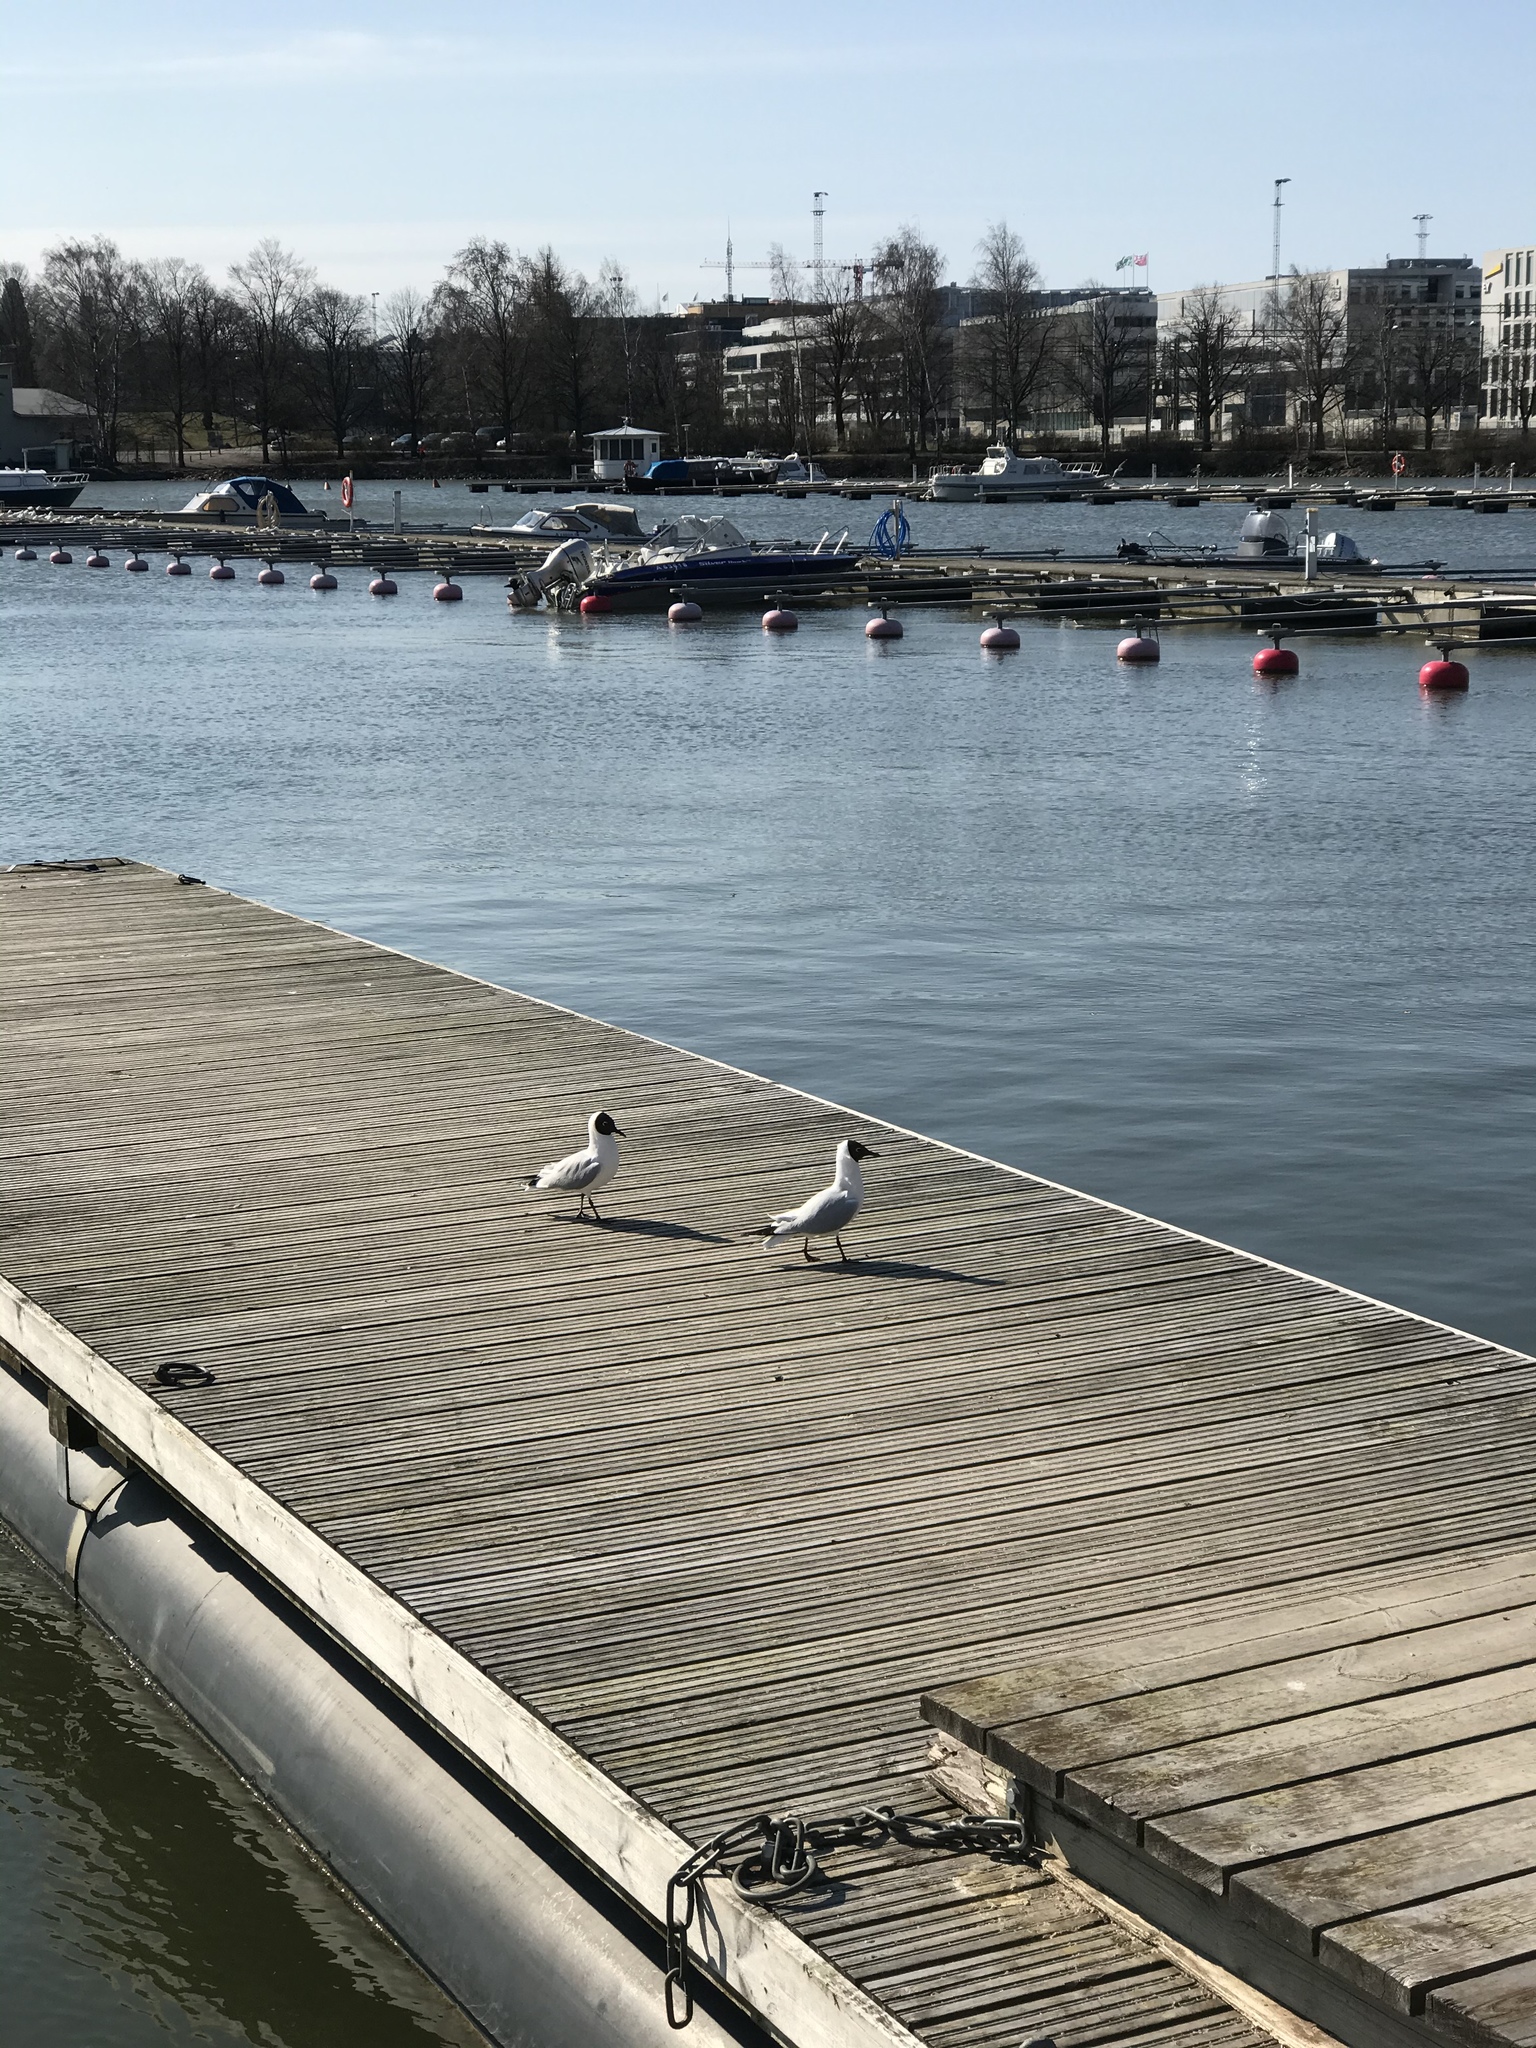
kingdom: Animalia
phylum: Chordata
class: Aves
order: Charadriiformes
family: Laridae
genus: Chroicocephalus
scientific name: Chroicocephalus ridibundus
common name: Black-headed gull
